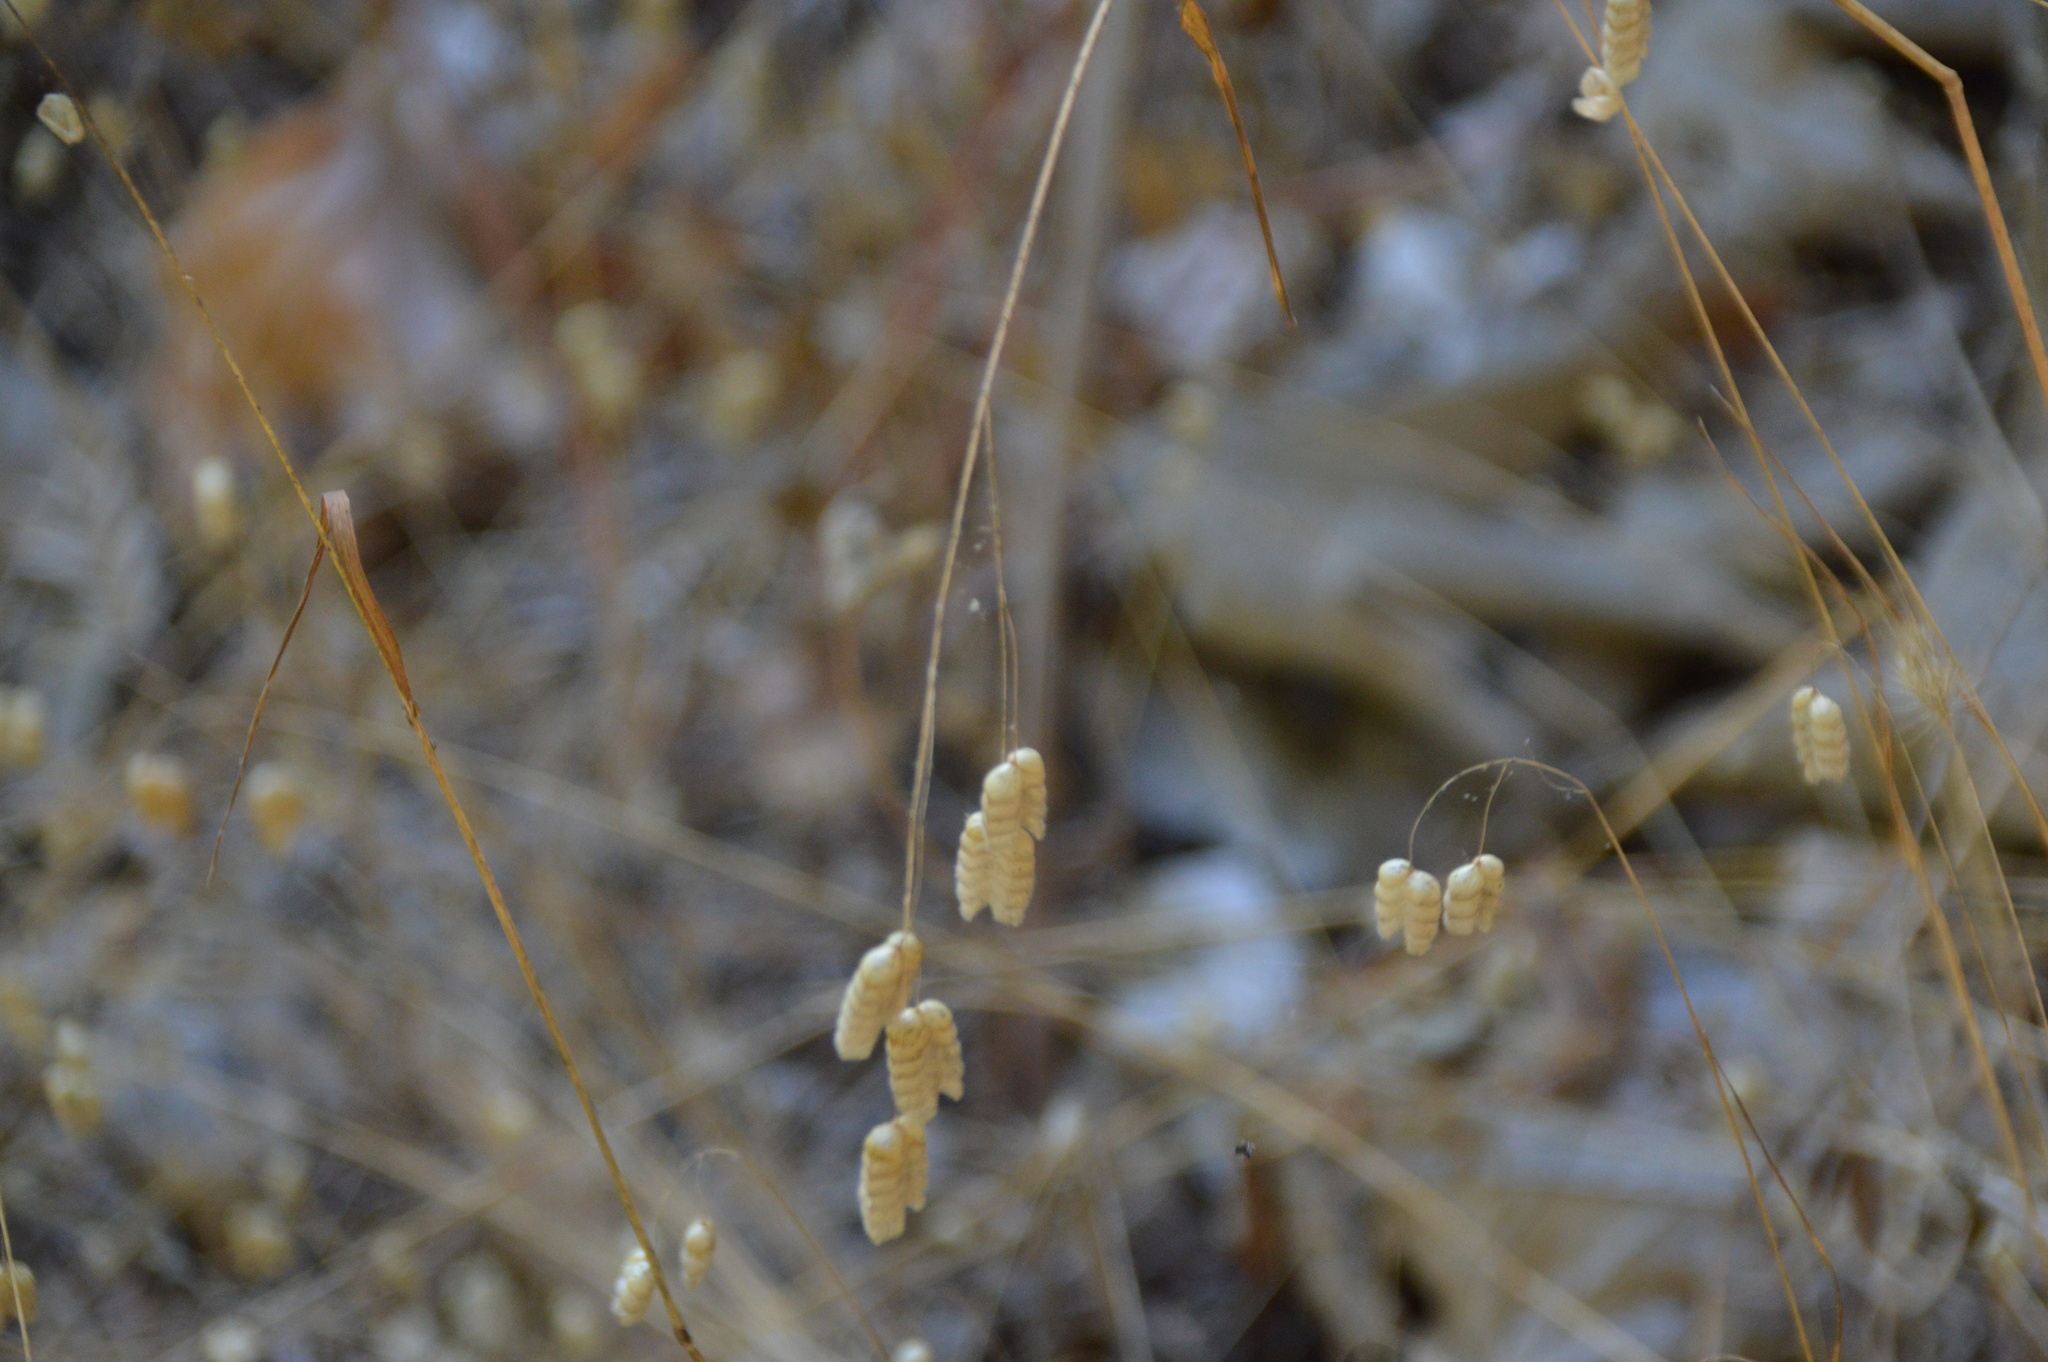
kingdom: Plantae
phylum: Tracheophyta
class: Liliopsida
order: Poales
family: Poaceae
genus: Briza
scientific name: Briza maxima
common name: Big quakinggrass
